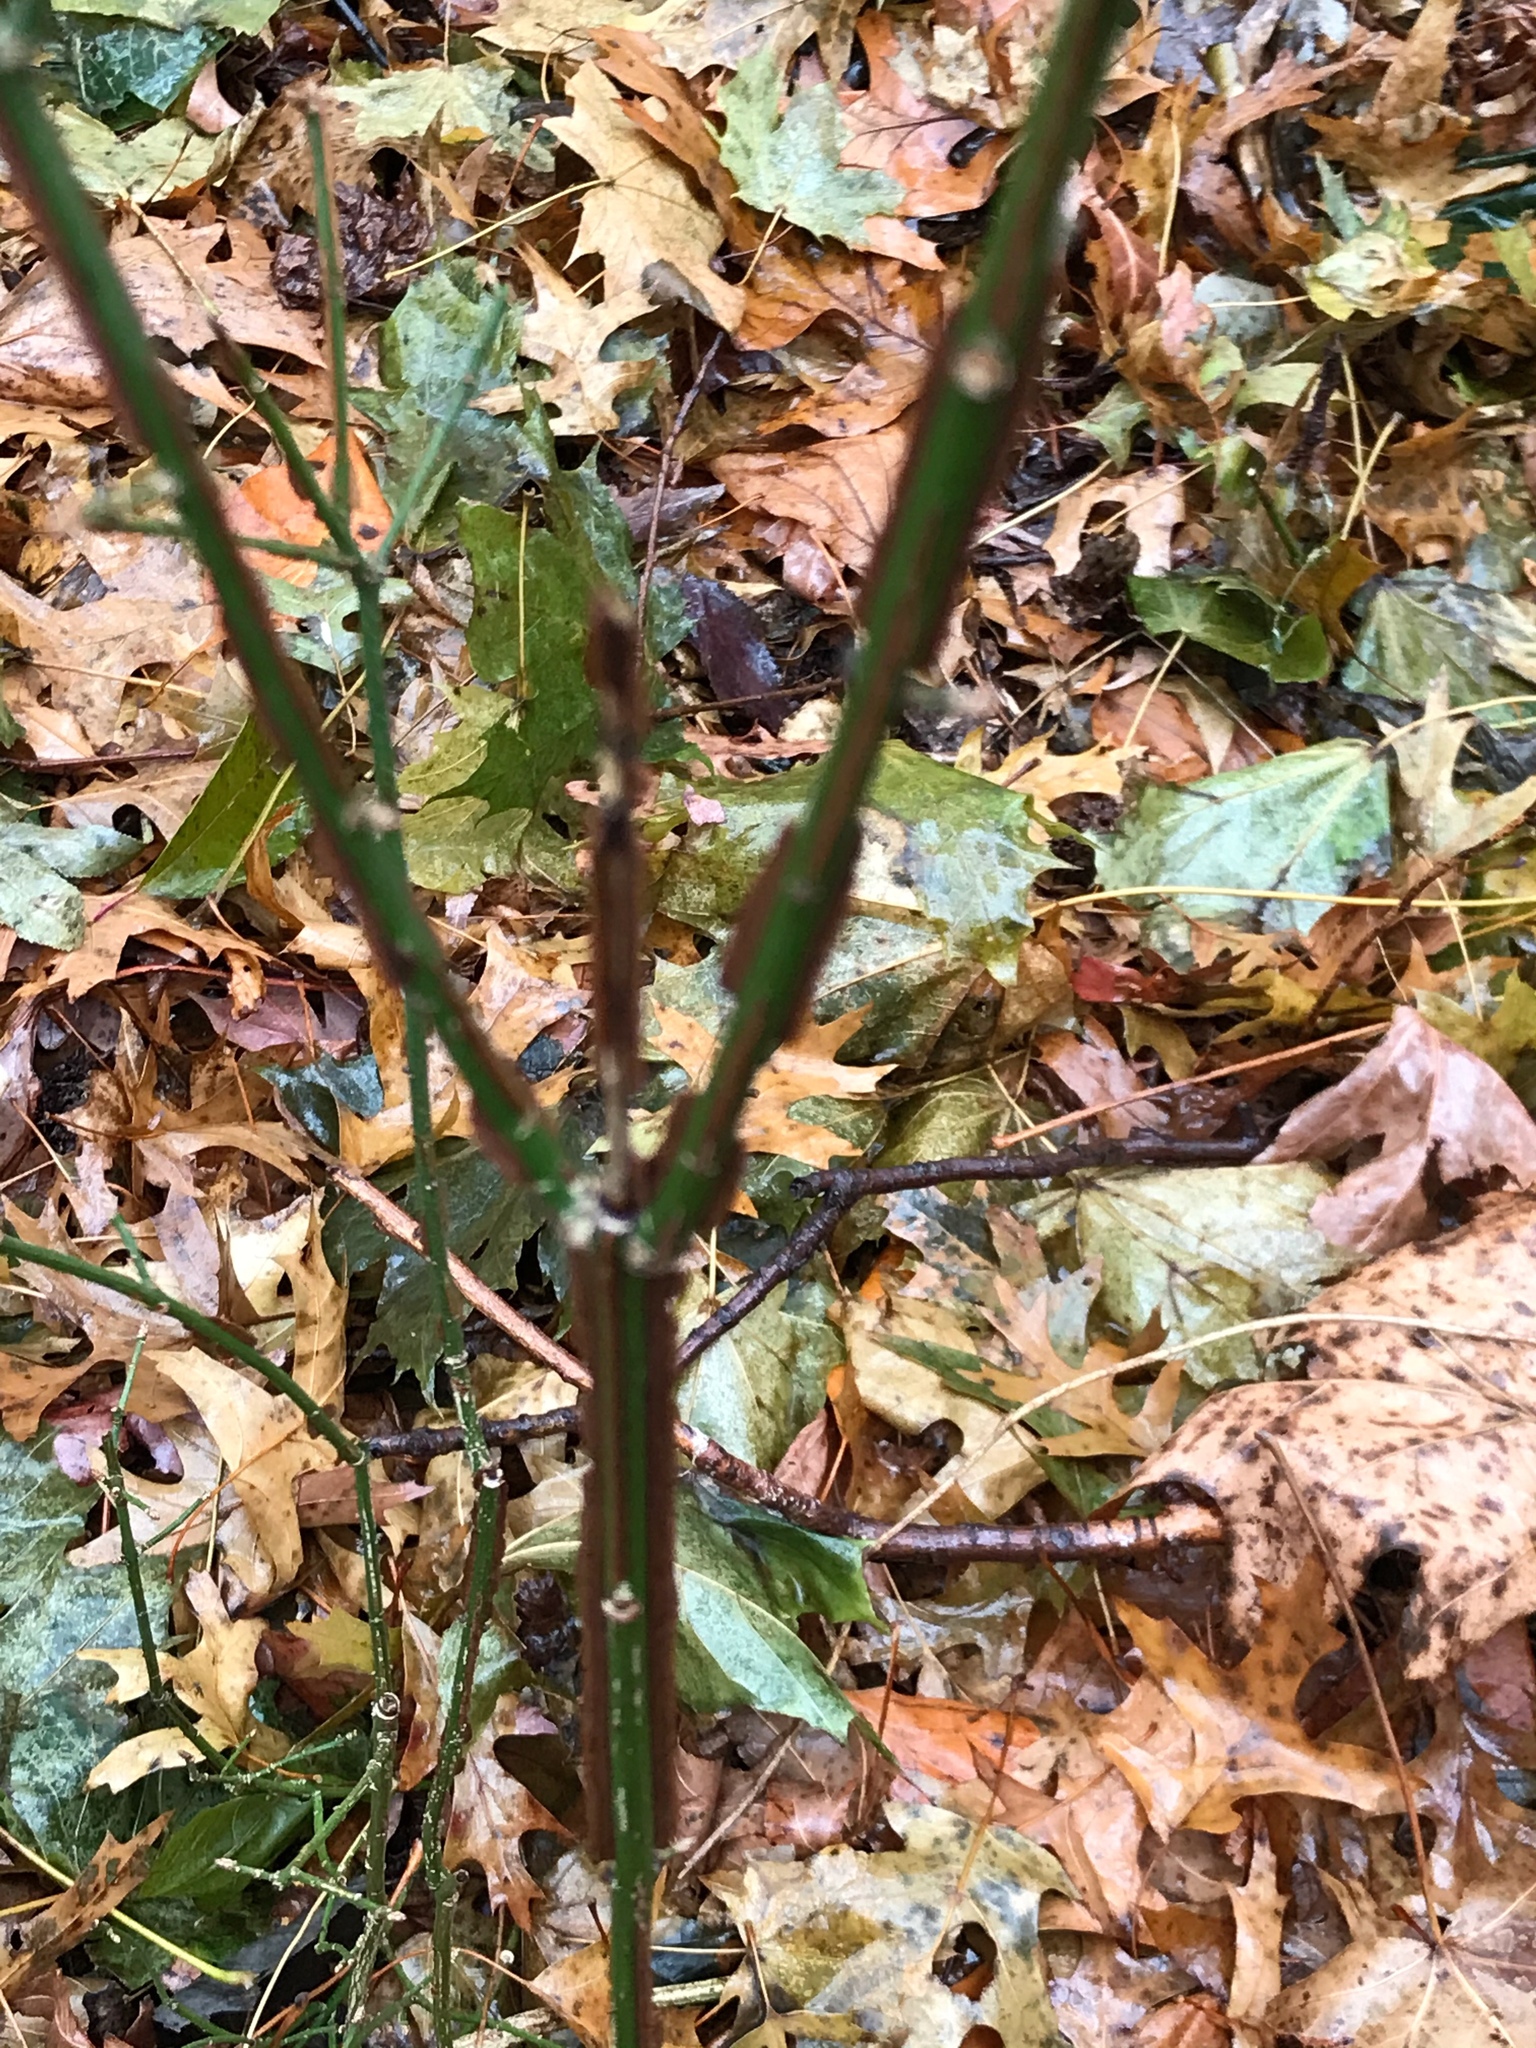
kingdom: Plantae
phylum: Tracheophyta
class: Magnoliopsida
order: Celastrales
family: Celastraceae
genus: Euonymus
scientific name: Euonymus alatus
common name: Winged euonymus
